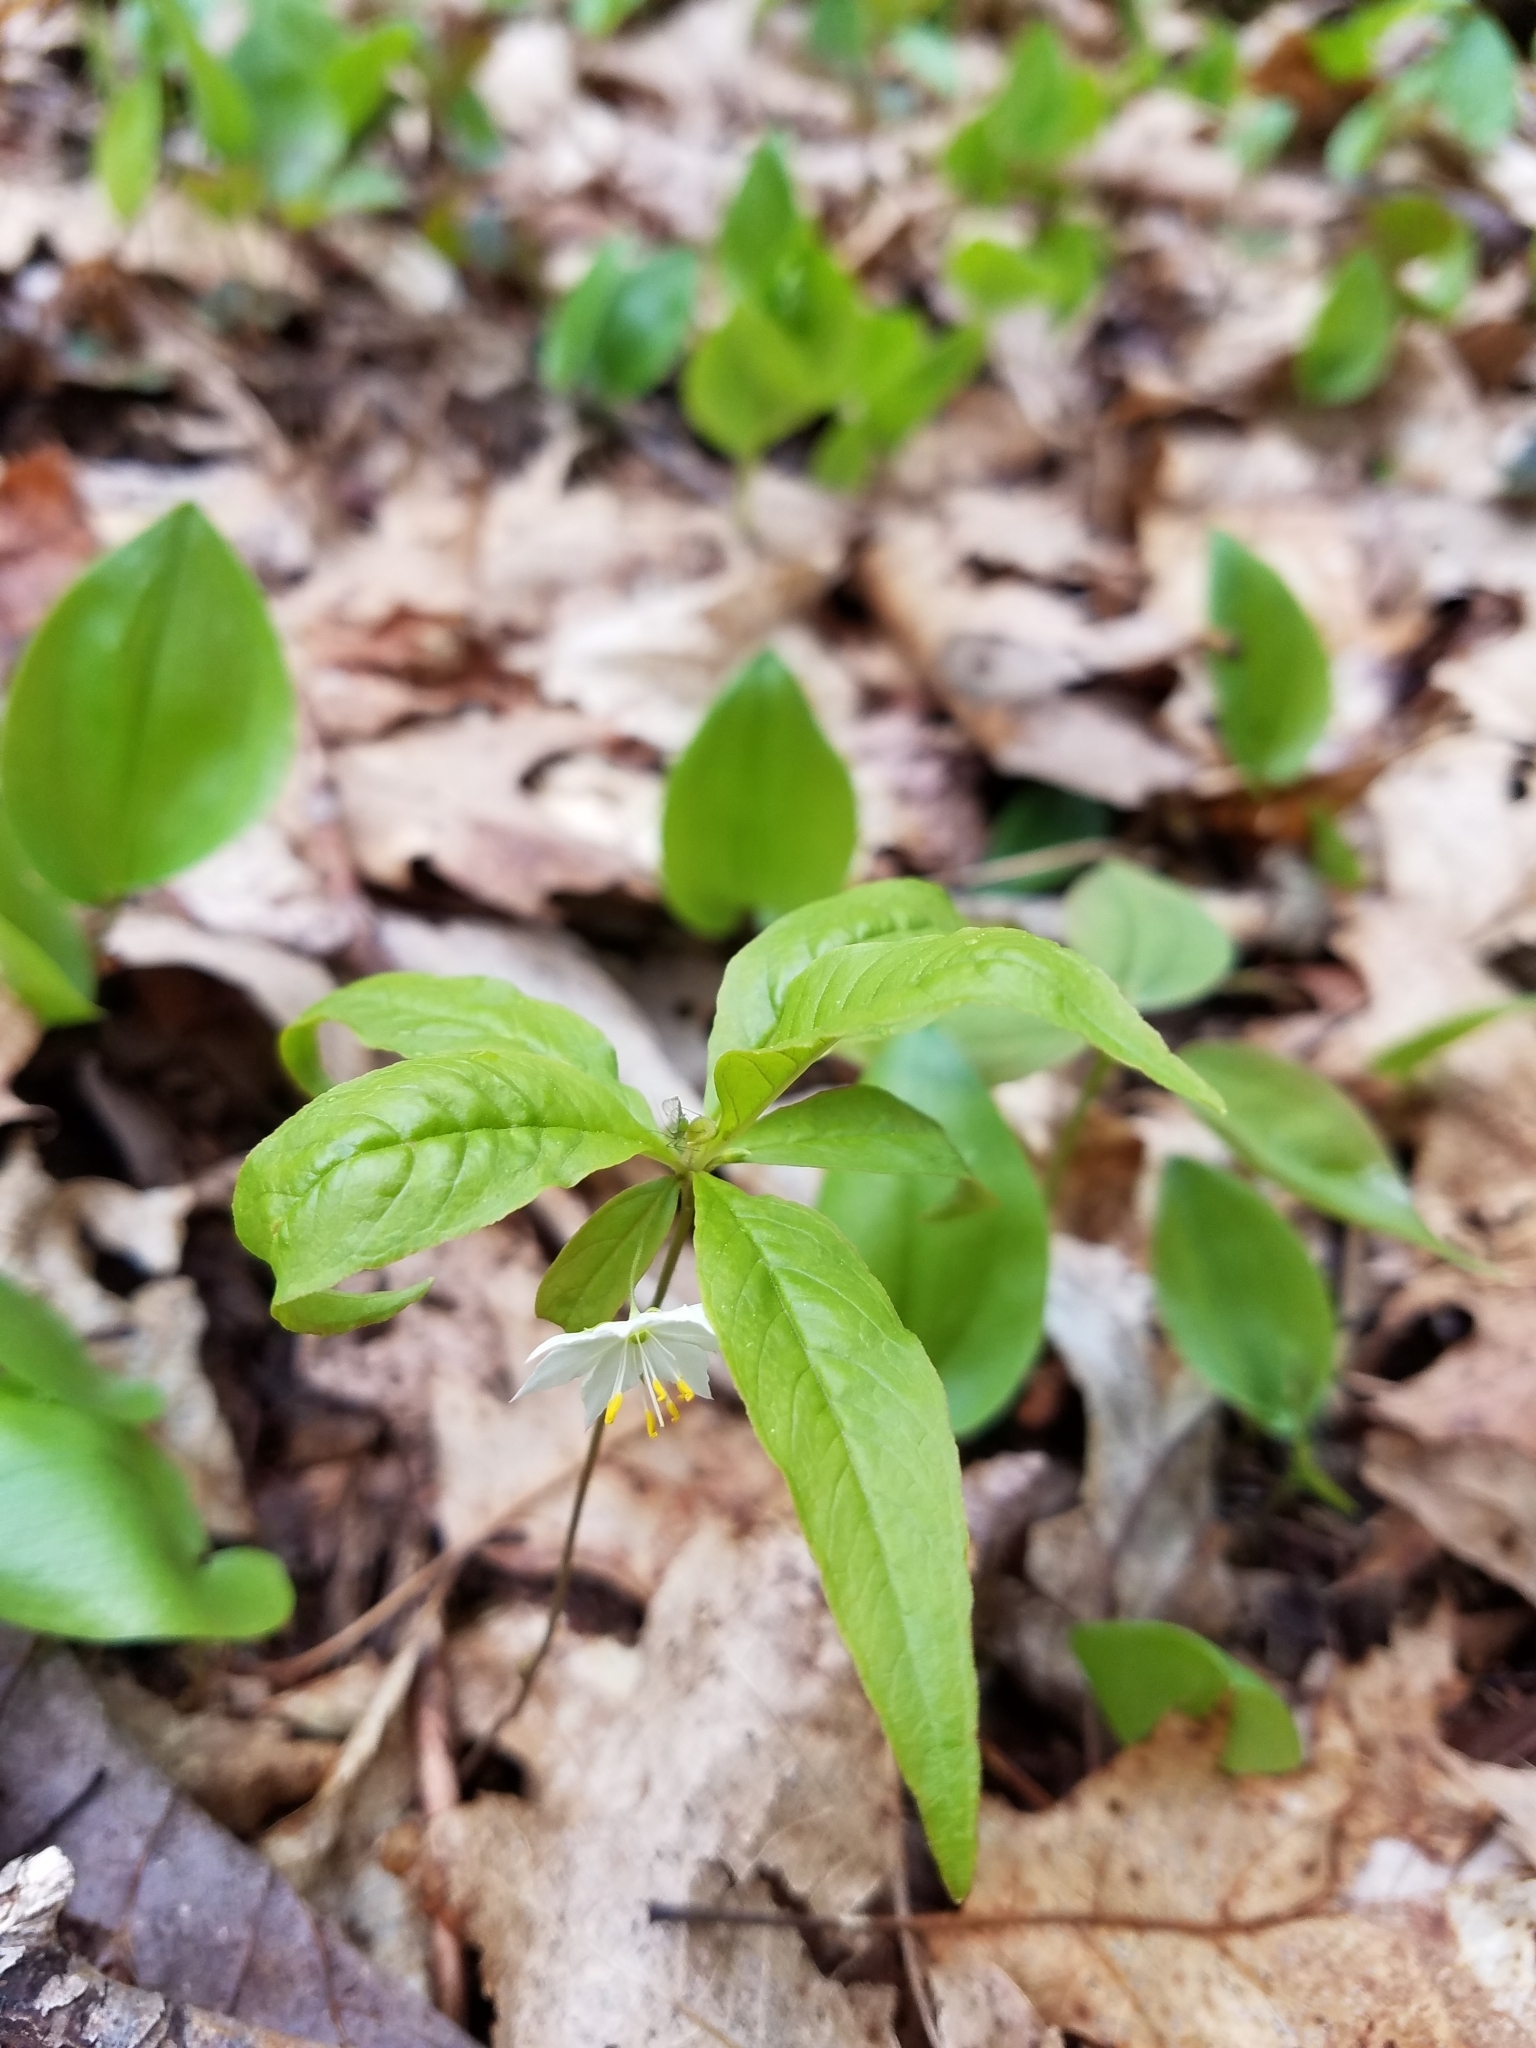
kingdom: Plantae
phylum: Tracheophyta
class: Magnoliopsida
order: Ericales
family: Primulaceae
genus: Lysimachia
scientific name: Lysimachia borealis
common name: American starflower
